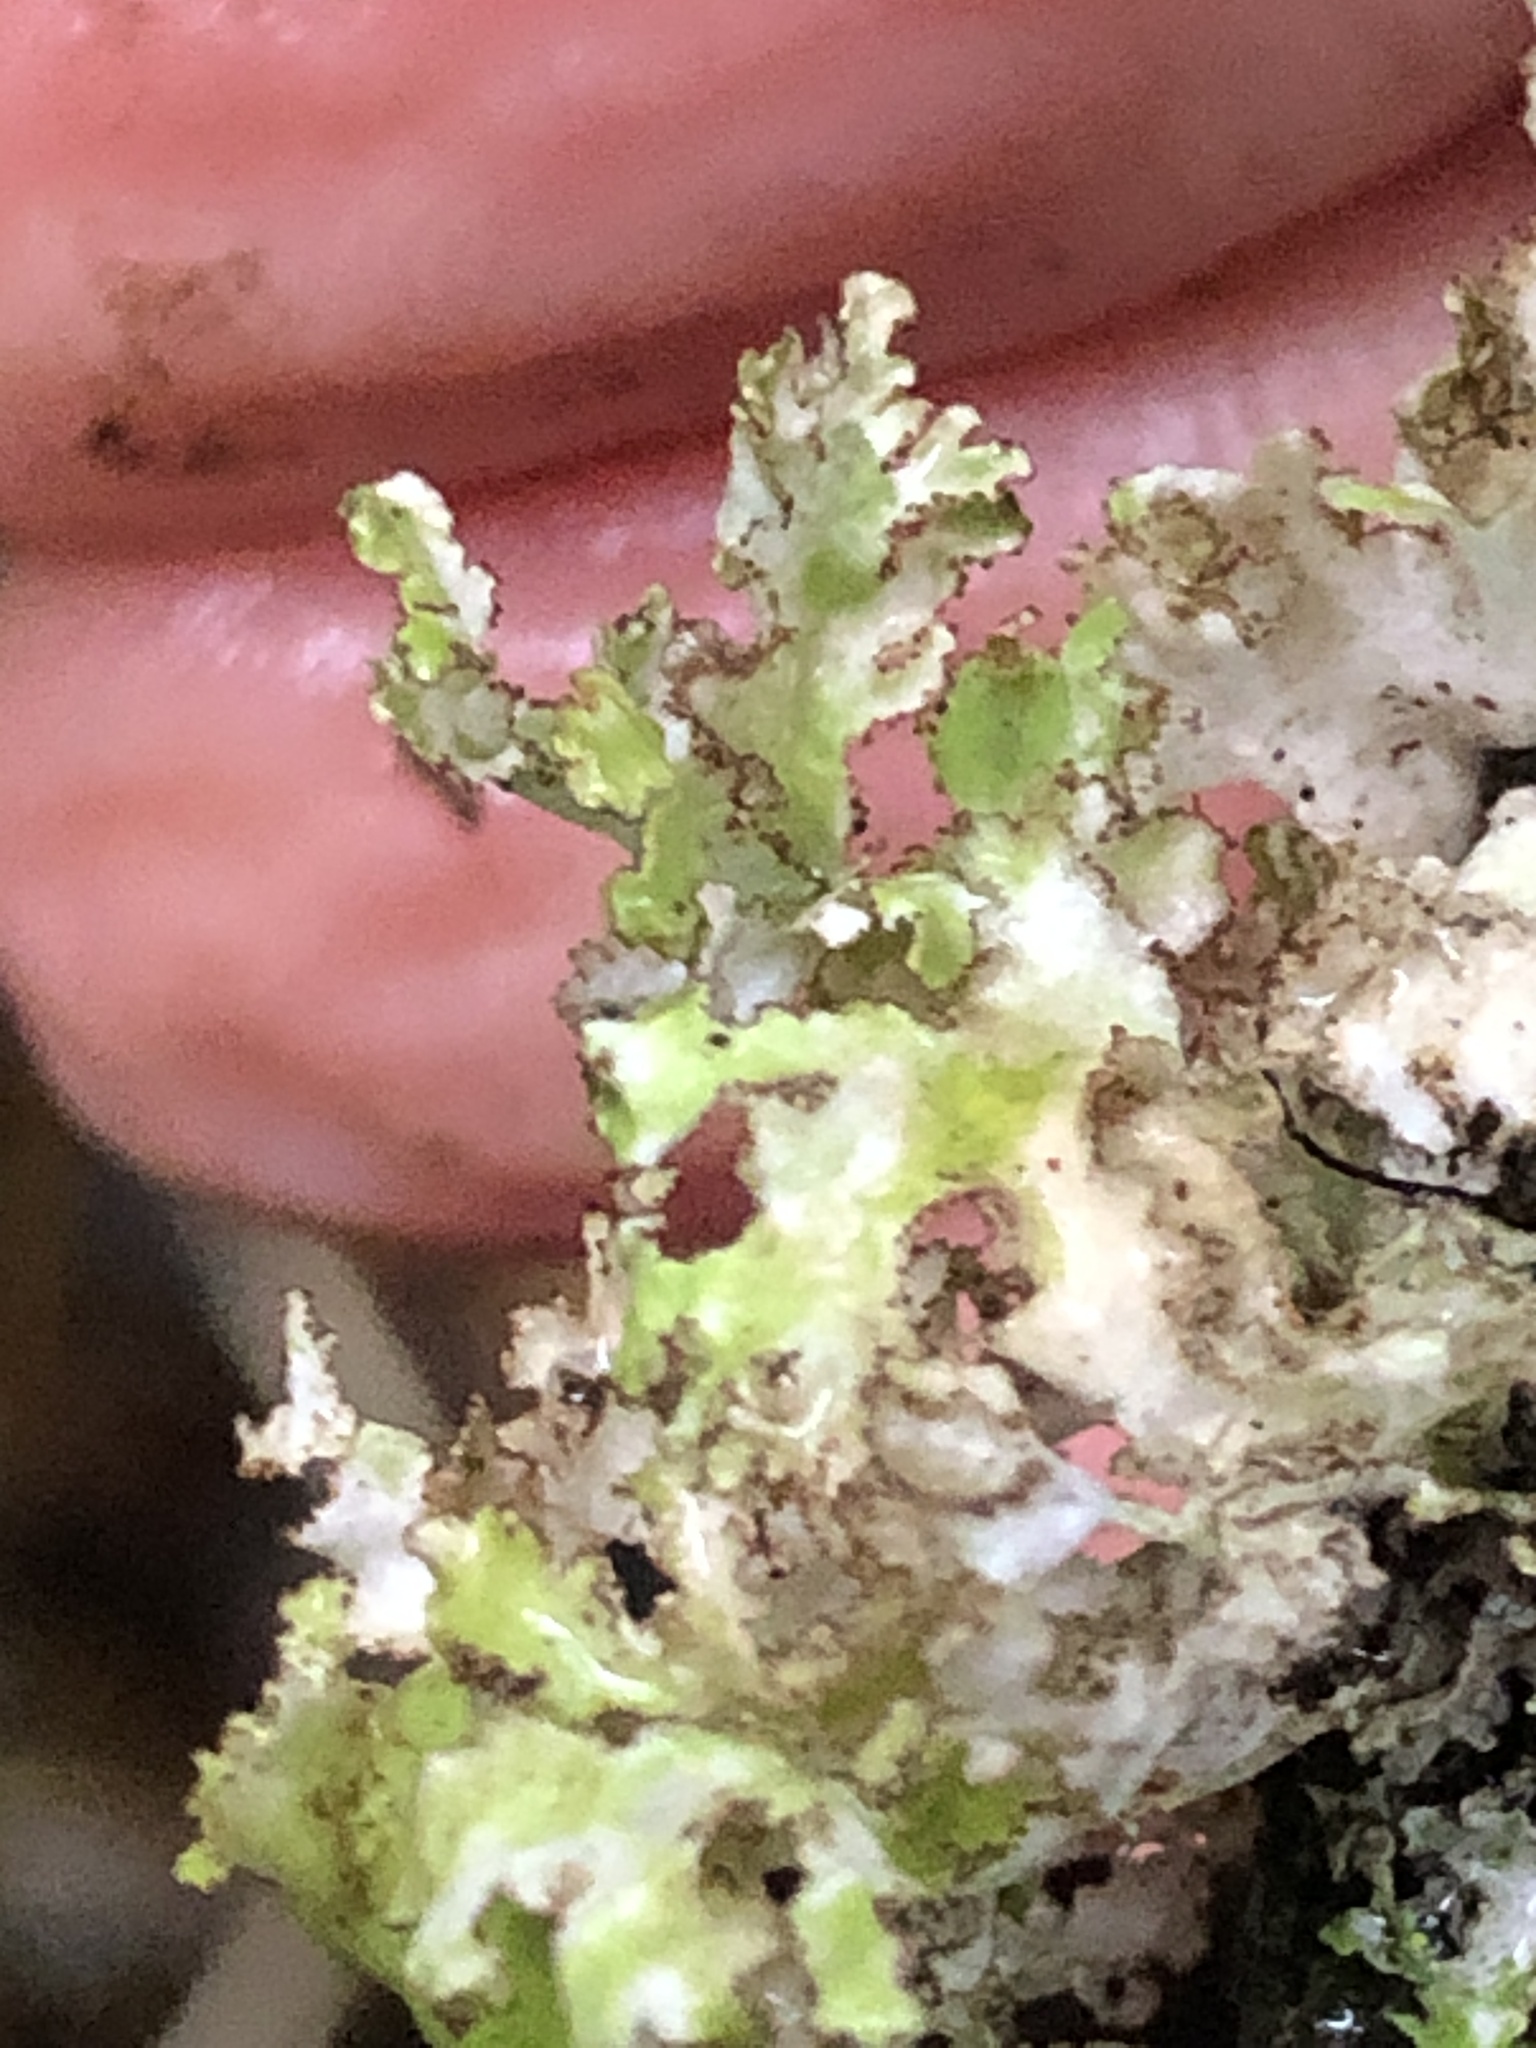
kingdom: Fungi
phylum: Ascomycota
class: Lecanoromycetes
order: Lecanorales
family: Parmeliaceae
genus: Nephromopsis
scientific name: Nephromopsis orbata
